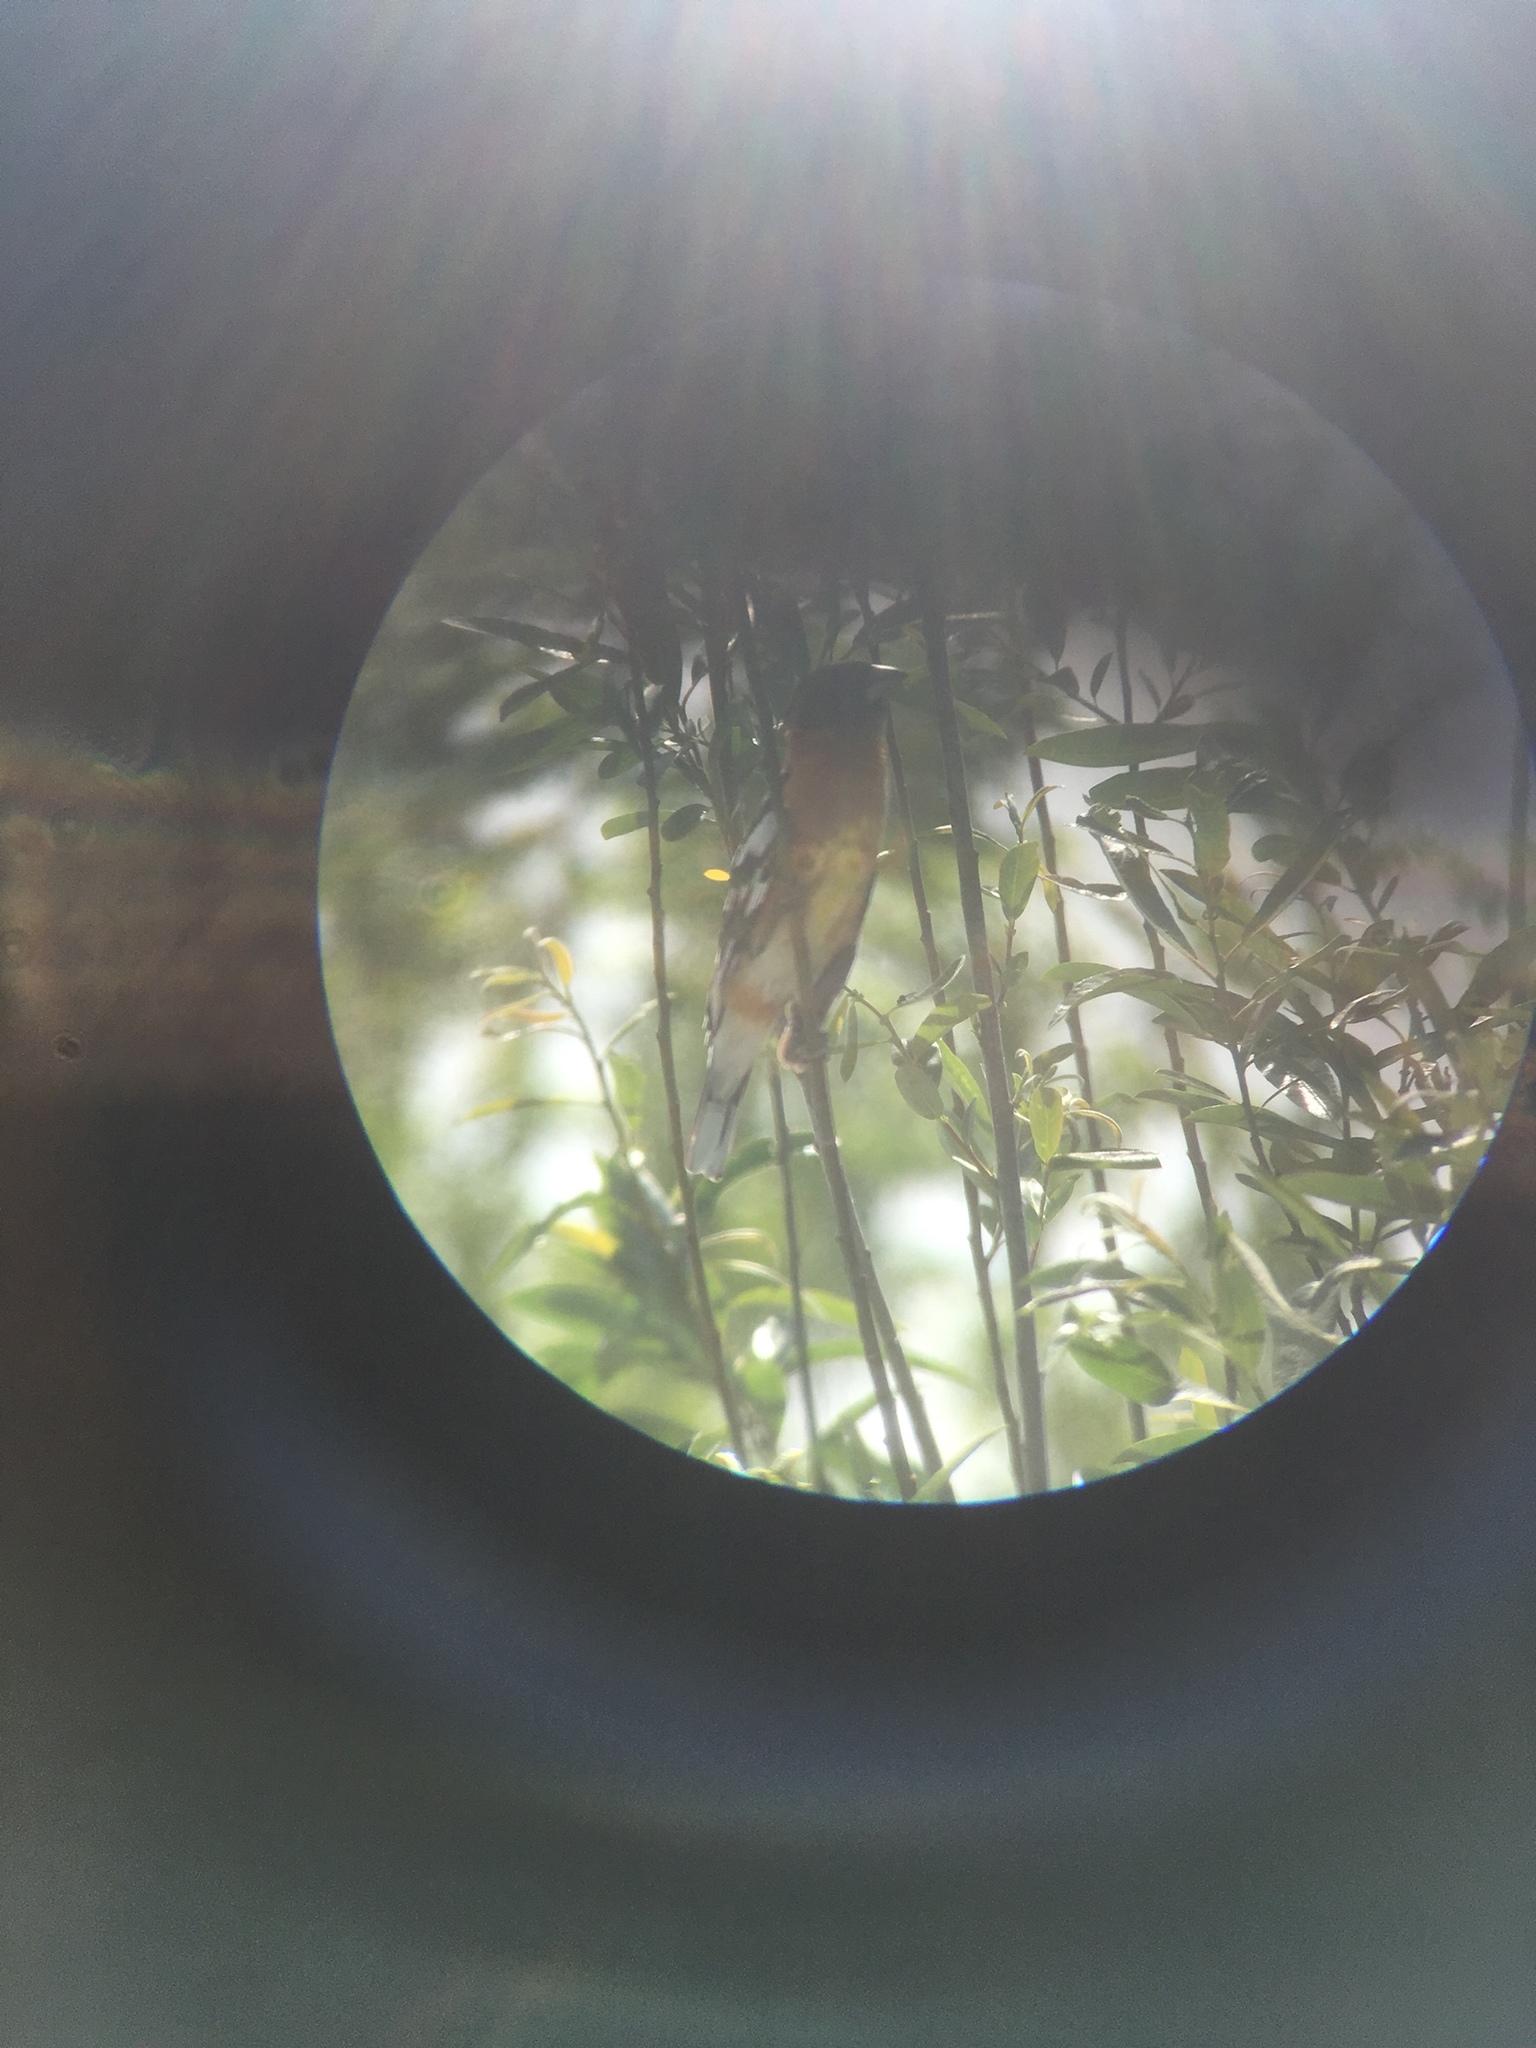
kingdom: Animalia
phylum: Chordata
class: Aves
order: Passeriformes
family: Cardinalidae
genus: Pheucticus
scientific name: Pheucticus melanocephalus
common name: Black-headed grosbeak
